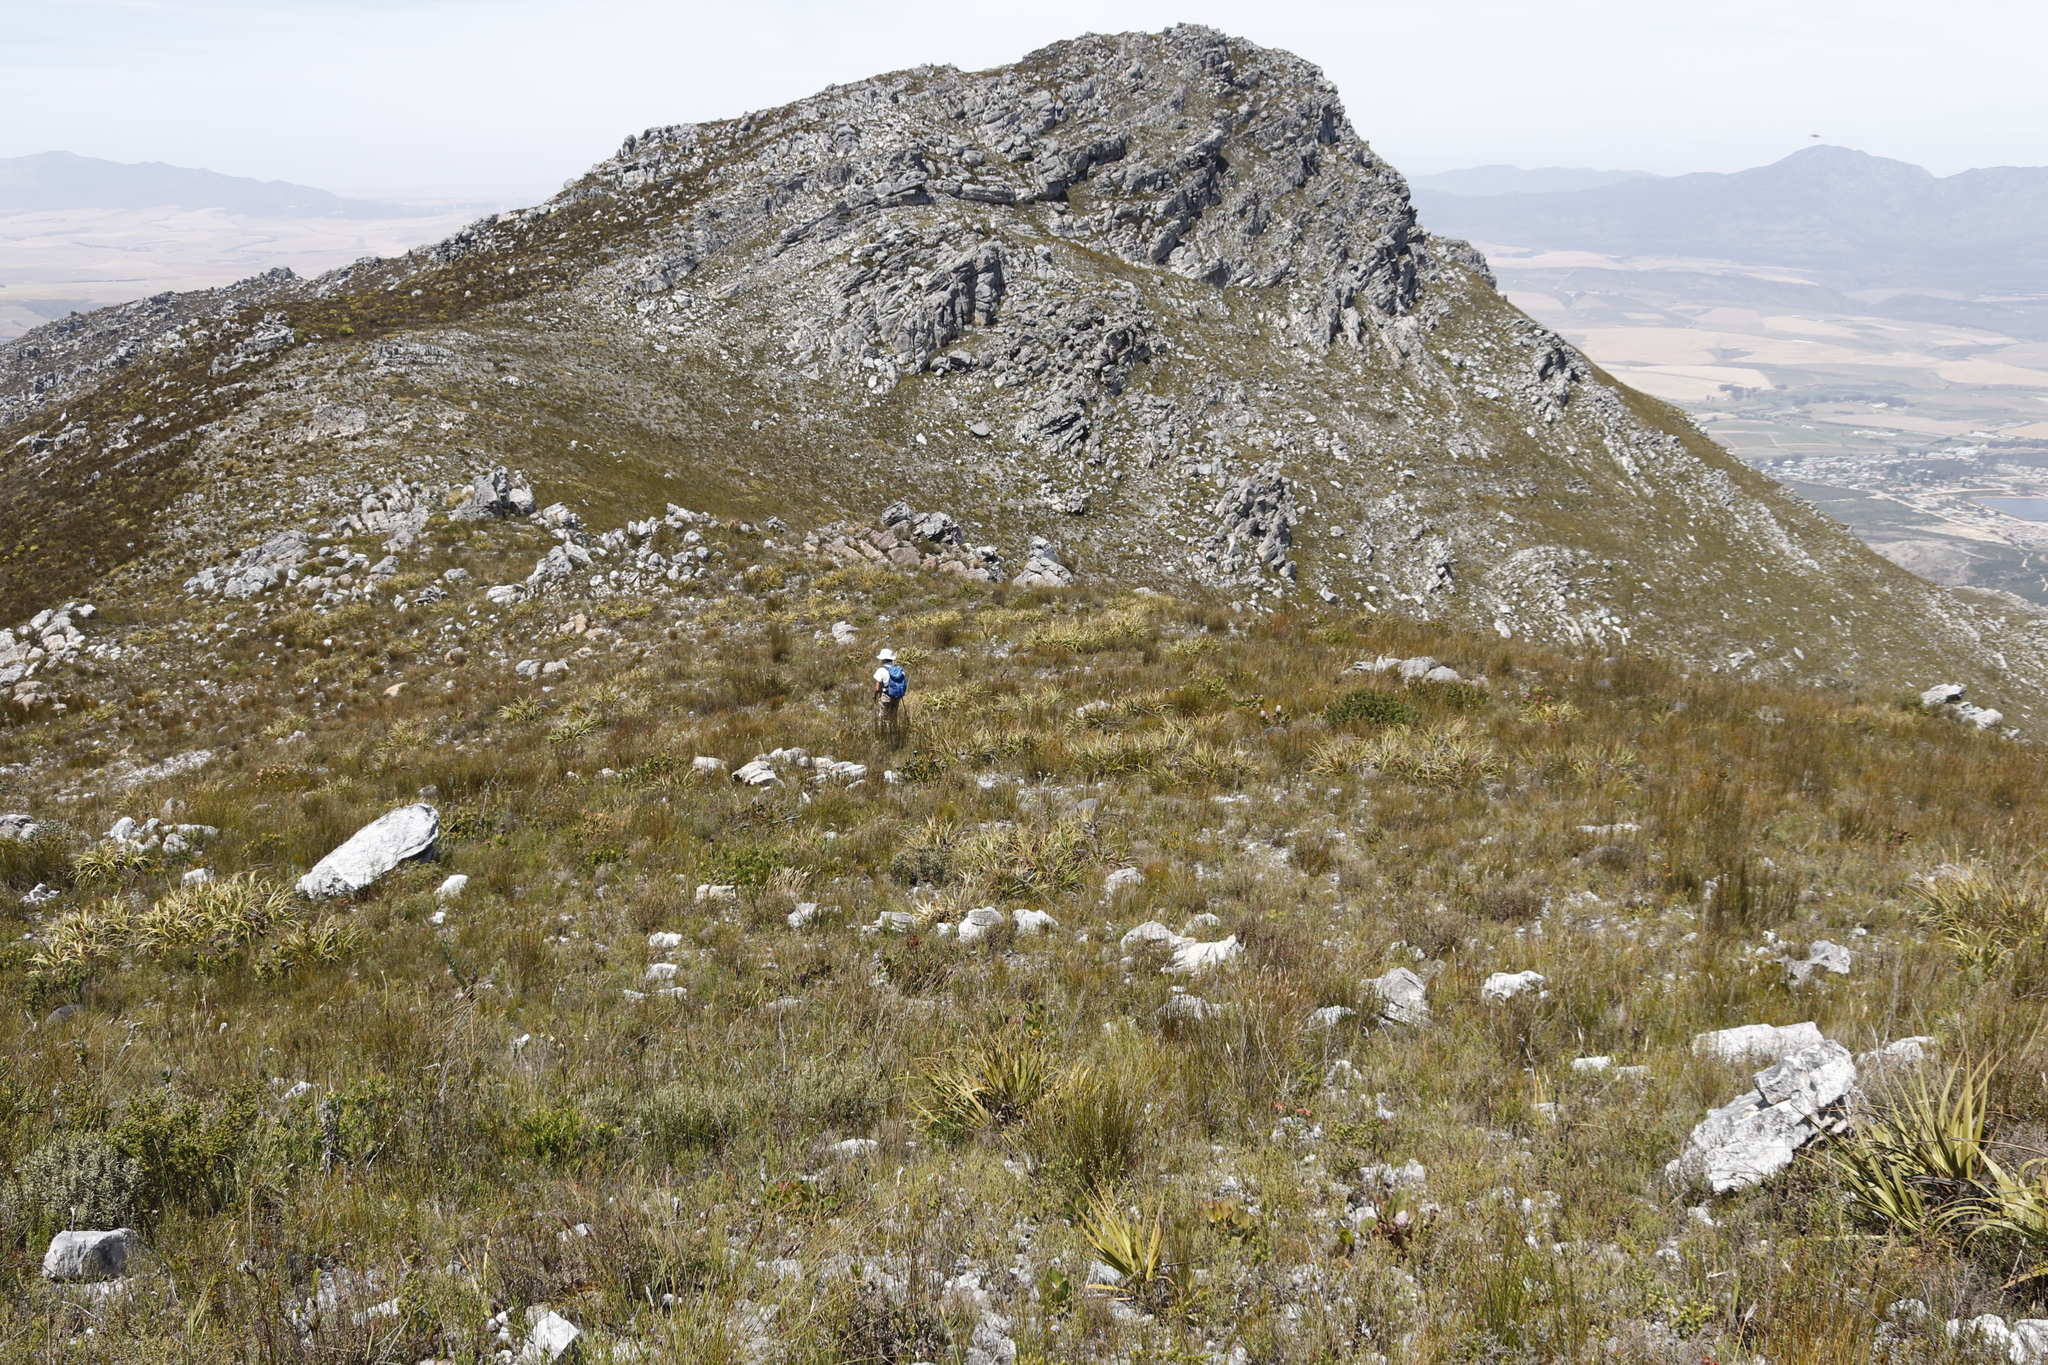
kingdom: Plantae
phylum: Tracheophyta
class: Liliopsida
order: Poales
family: Cyperaceae
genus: Tetraria
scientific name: Tetraria thermalis
